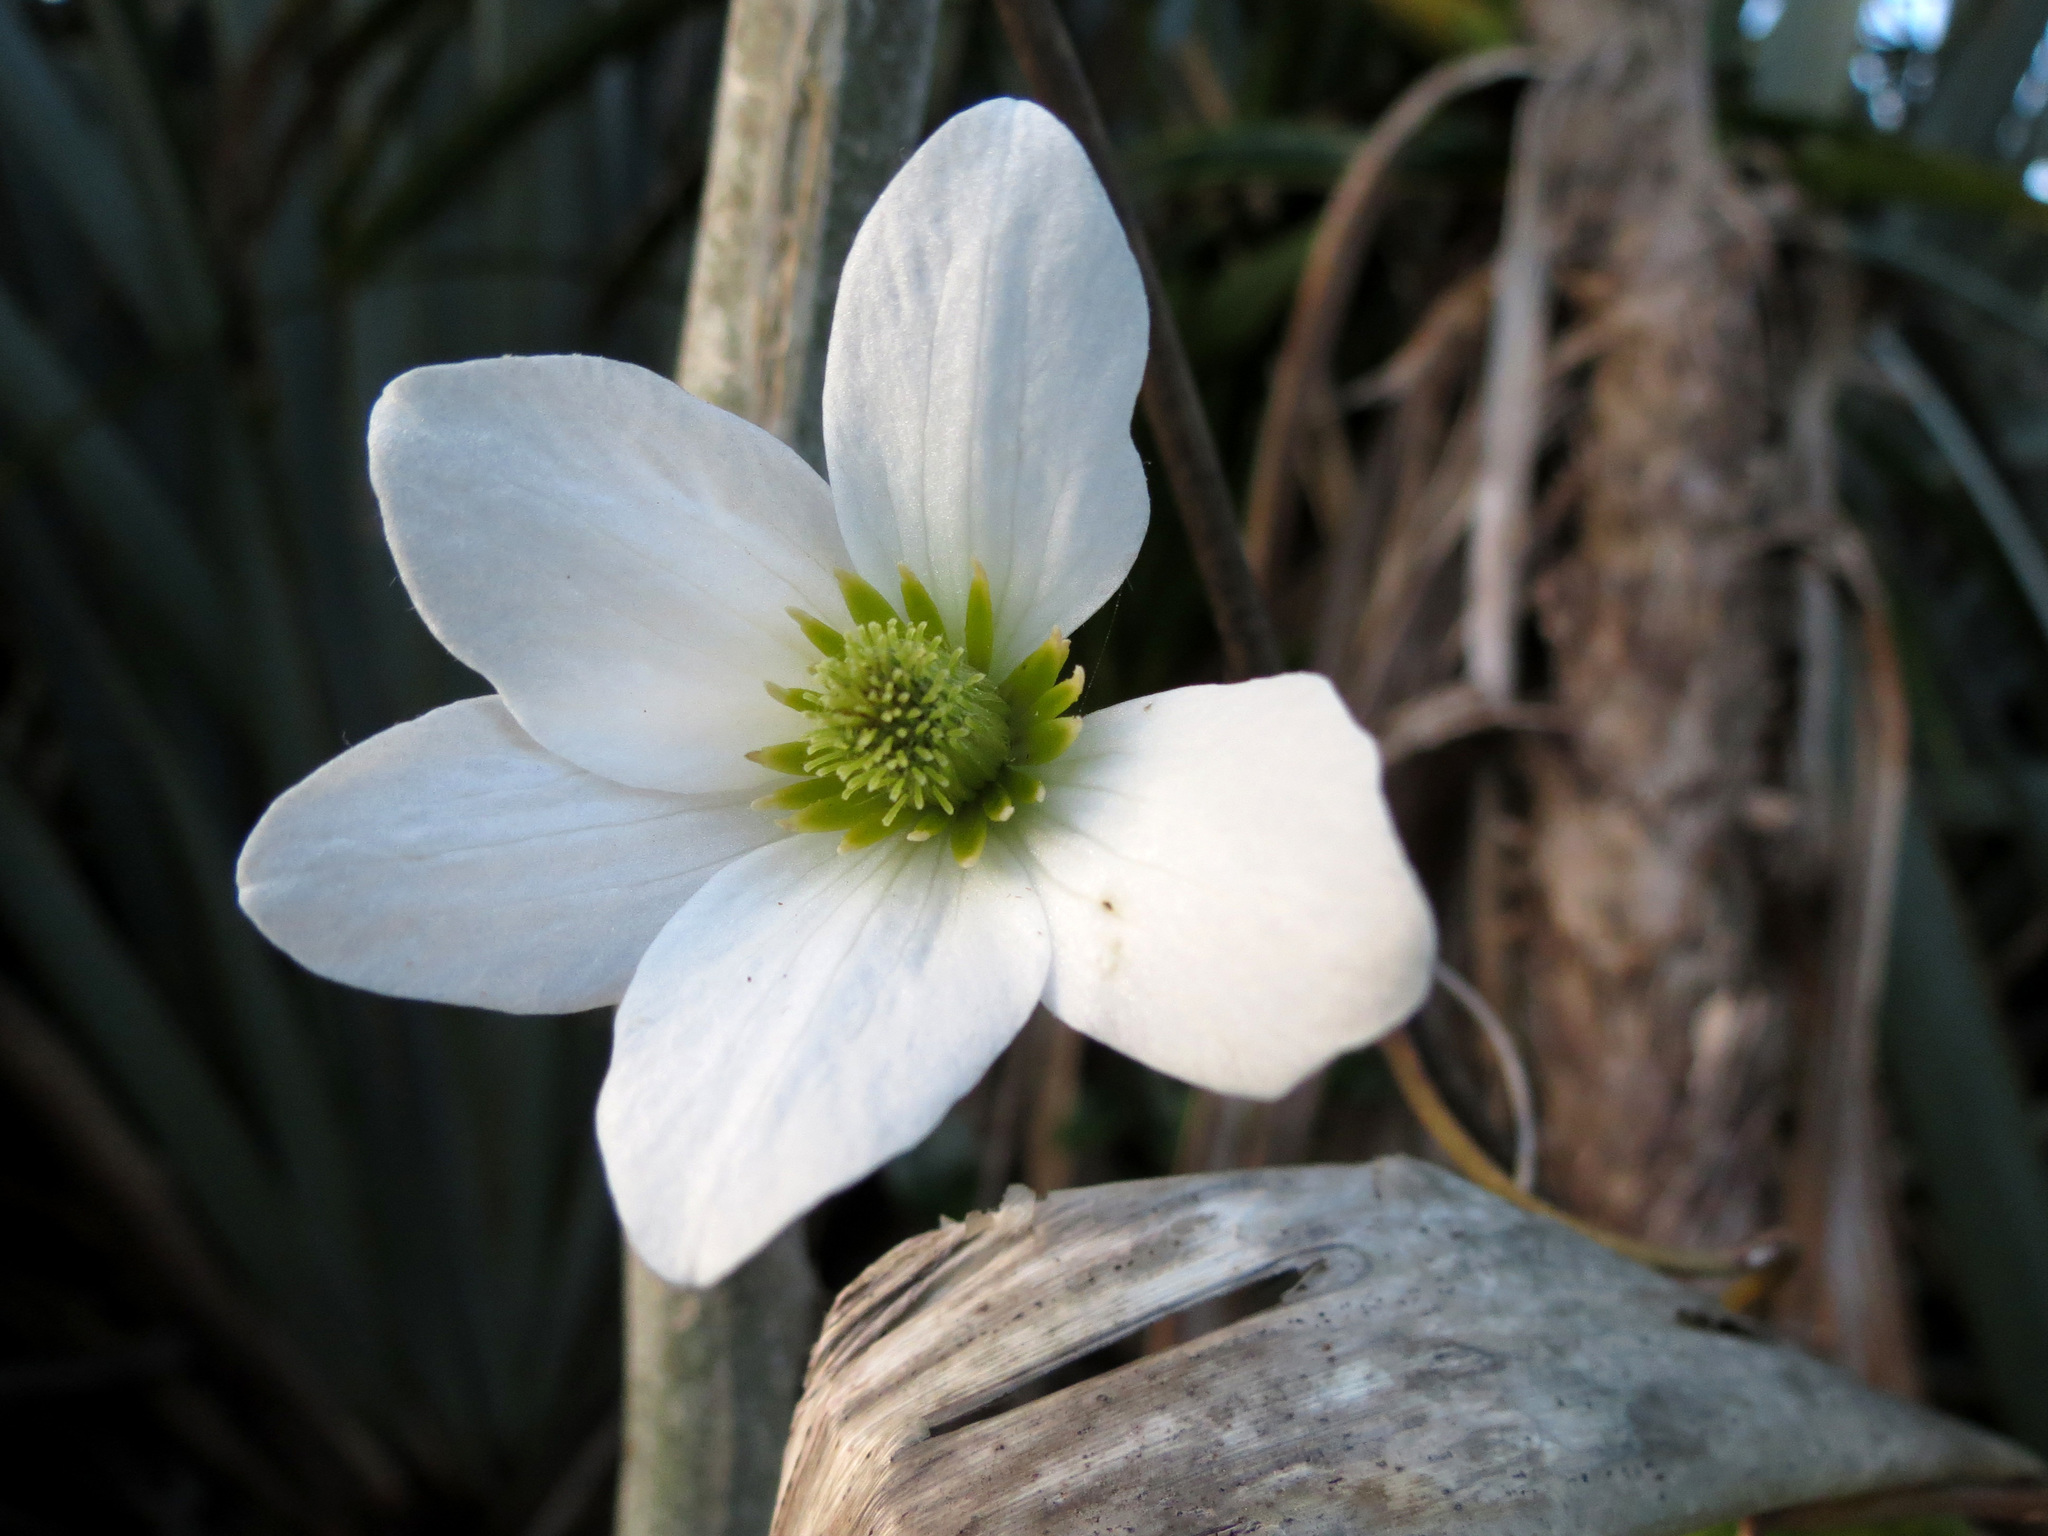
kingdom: Plantae
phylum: Tracheophyta
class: Magnoliopsida
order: Ranunculales
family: Ranunculaceae
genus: Clematis
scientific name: Clematis paniculata
